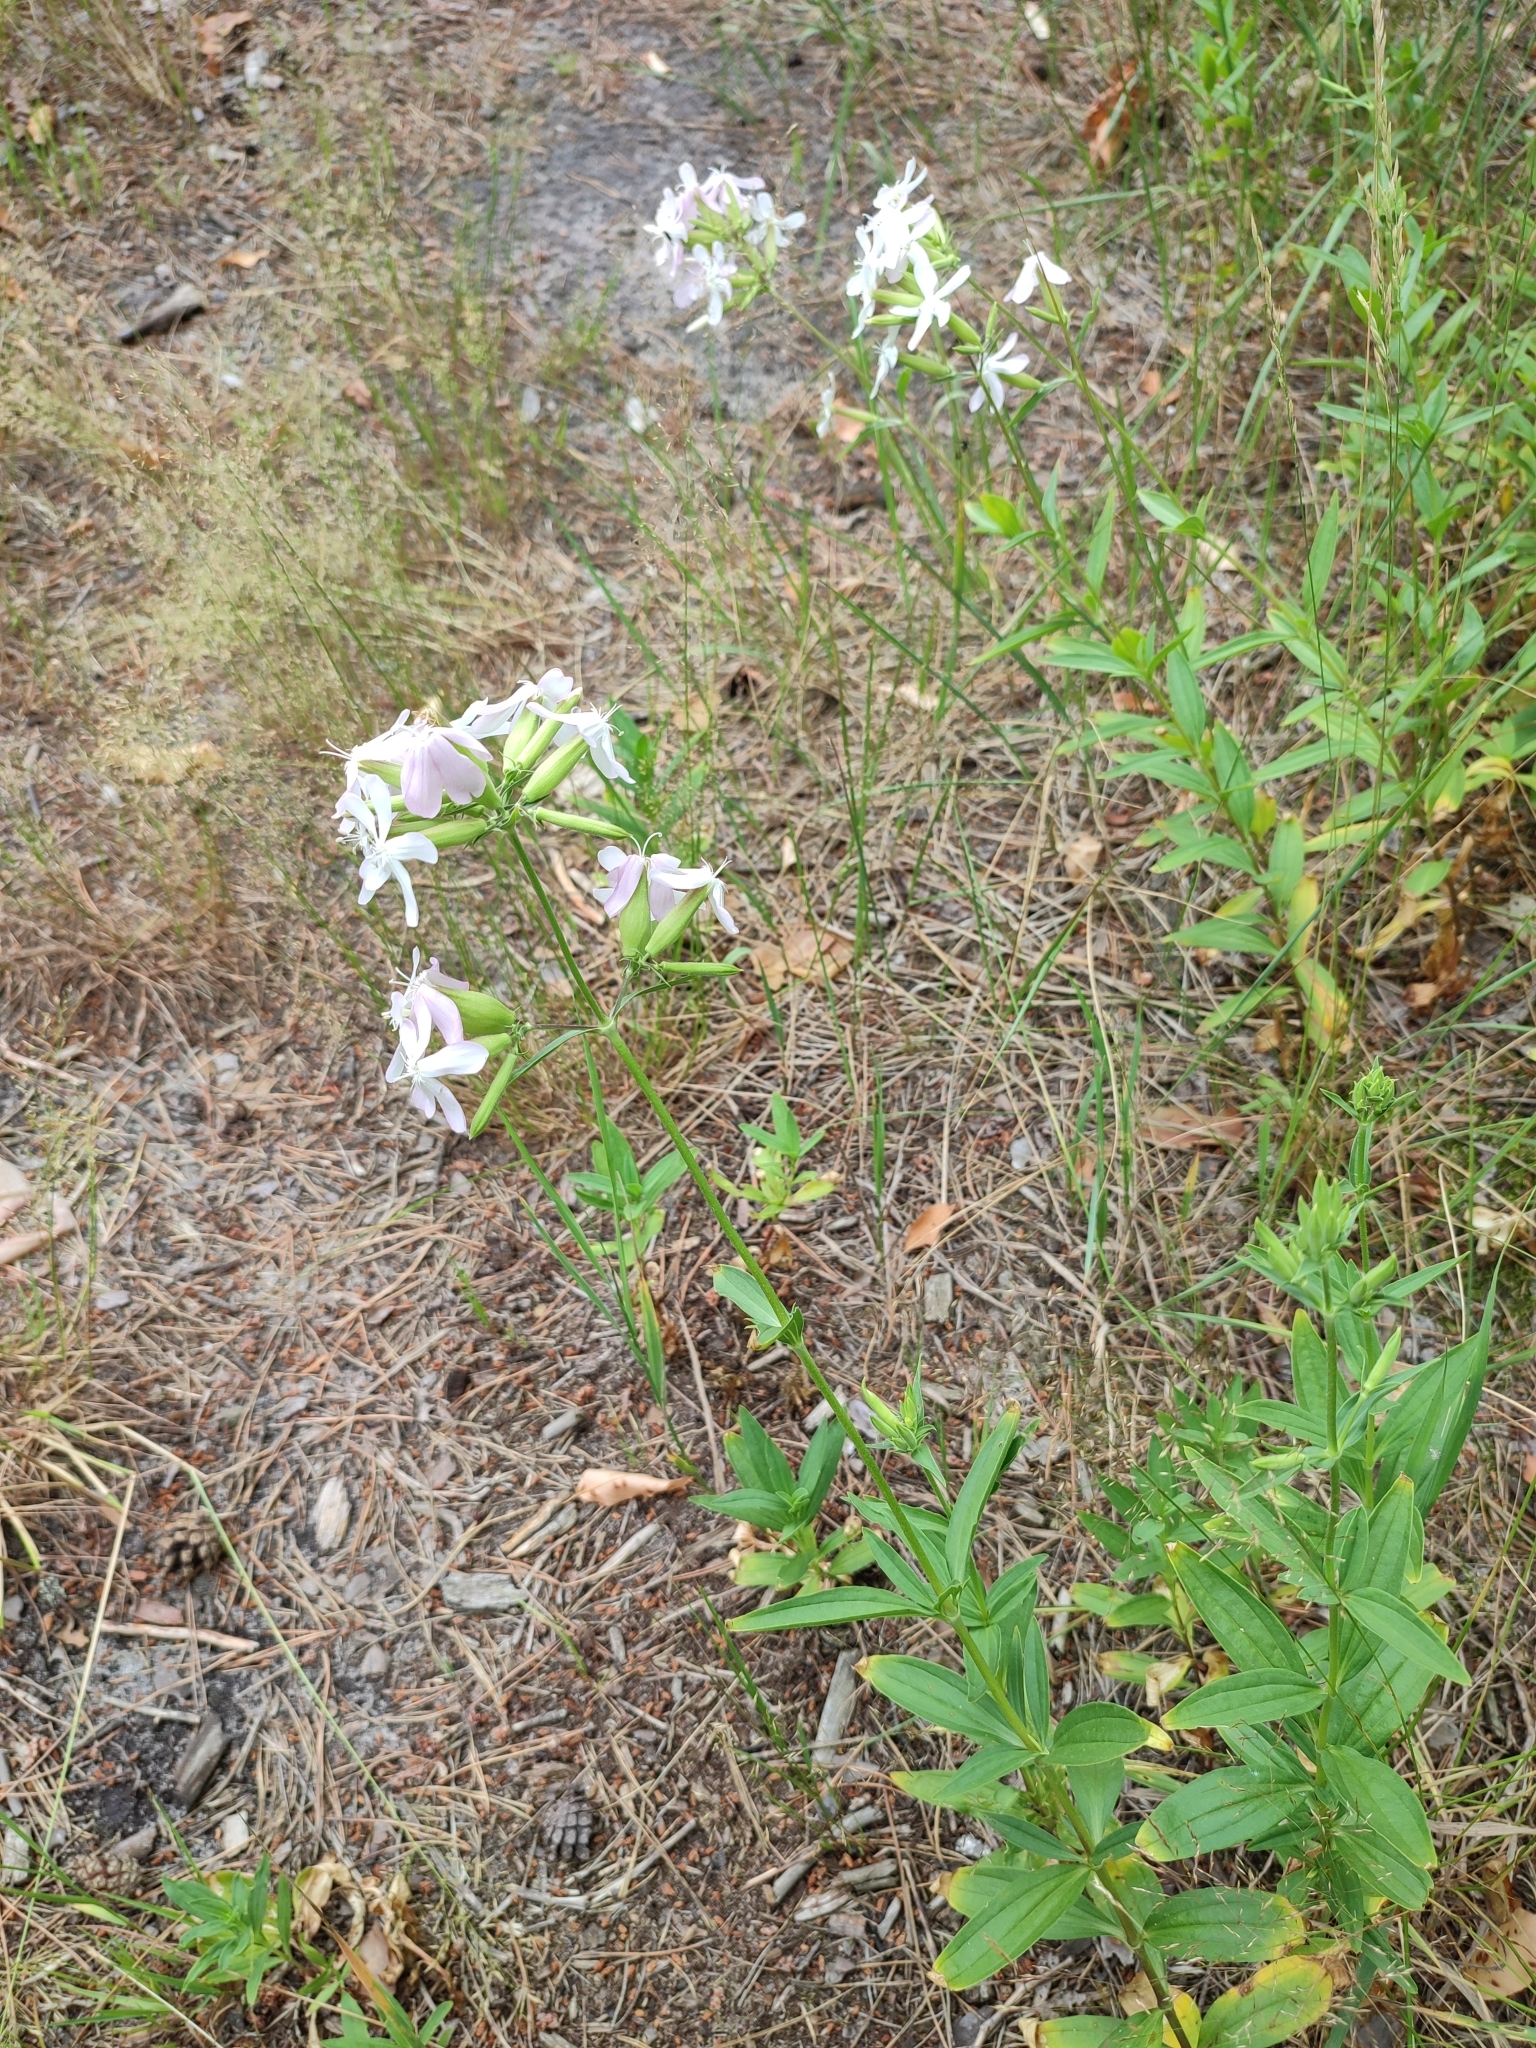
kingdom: Plantae
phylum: Tracheophyta
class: Magnoliopsida
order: Caryophyllales
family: Caryophyllaceae
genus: Saponaria
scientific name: Saponaria officinalis
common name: Soapwort
